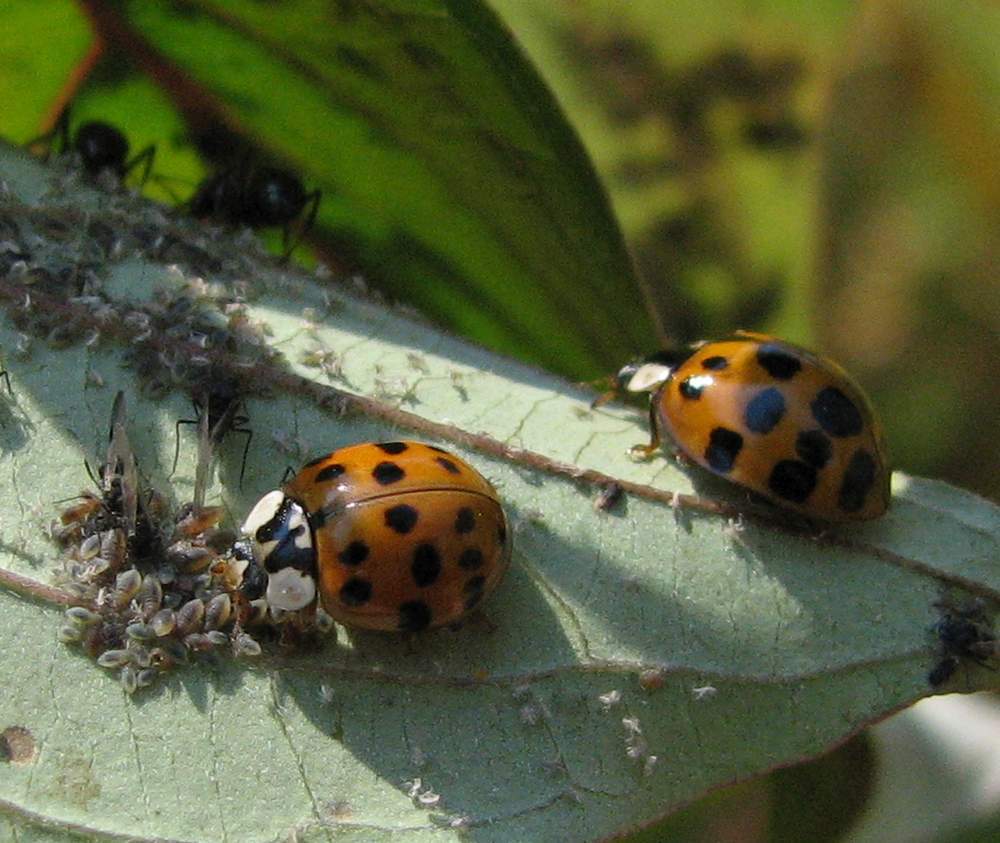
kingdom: Animalia
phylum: Arthropoda
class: Insecta
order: Coleoptera
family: Coccinellidae
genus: Harmonia
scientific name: Harmonia axyridis
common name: Harlequin ladybird
